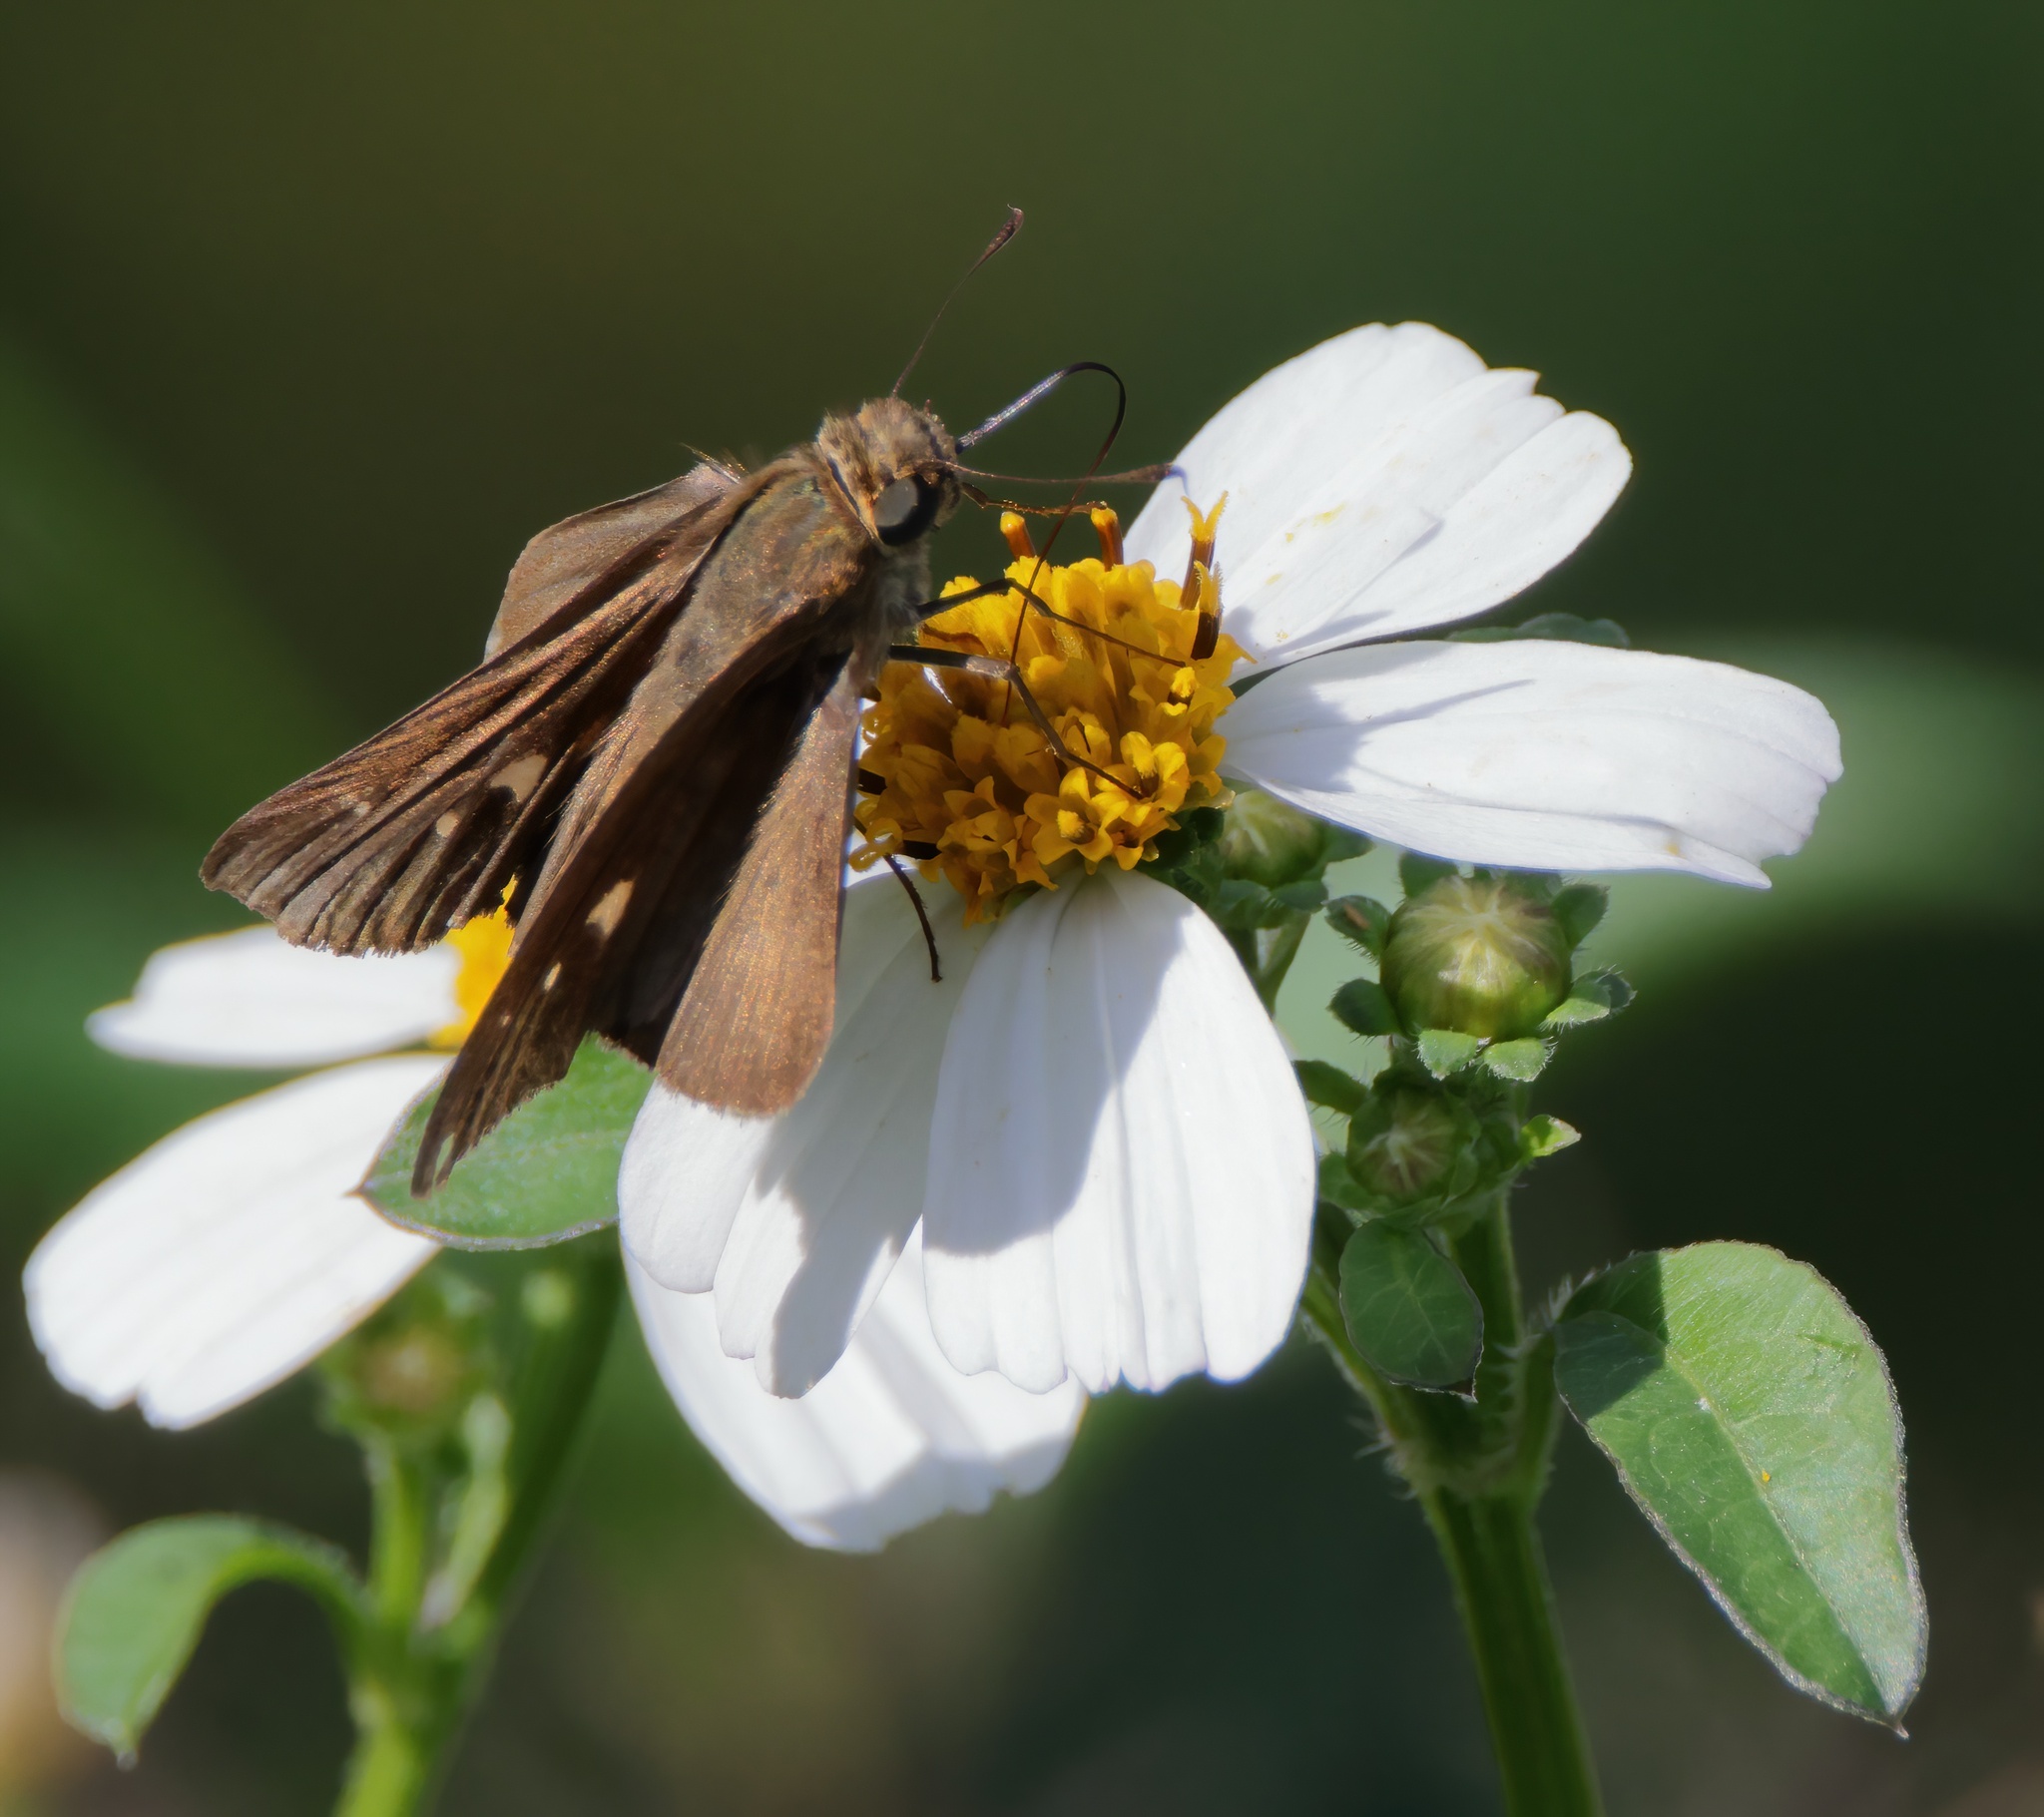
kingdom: Animalia
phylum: Arthropoda
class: Insecta
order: Lepidoptera
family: Hesperiidae
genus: Panoquina
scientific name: Panoquina ocola
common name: Ocola skipper
